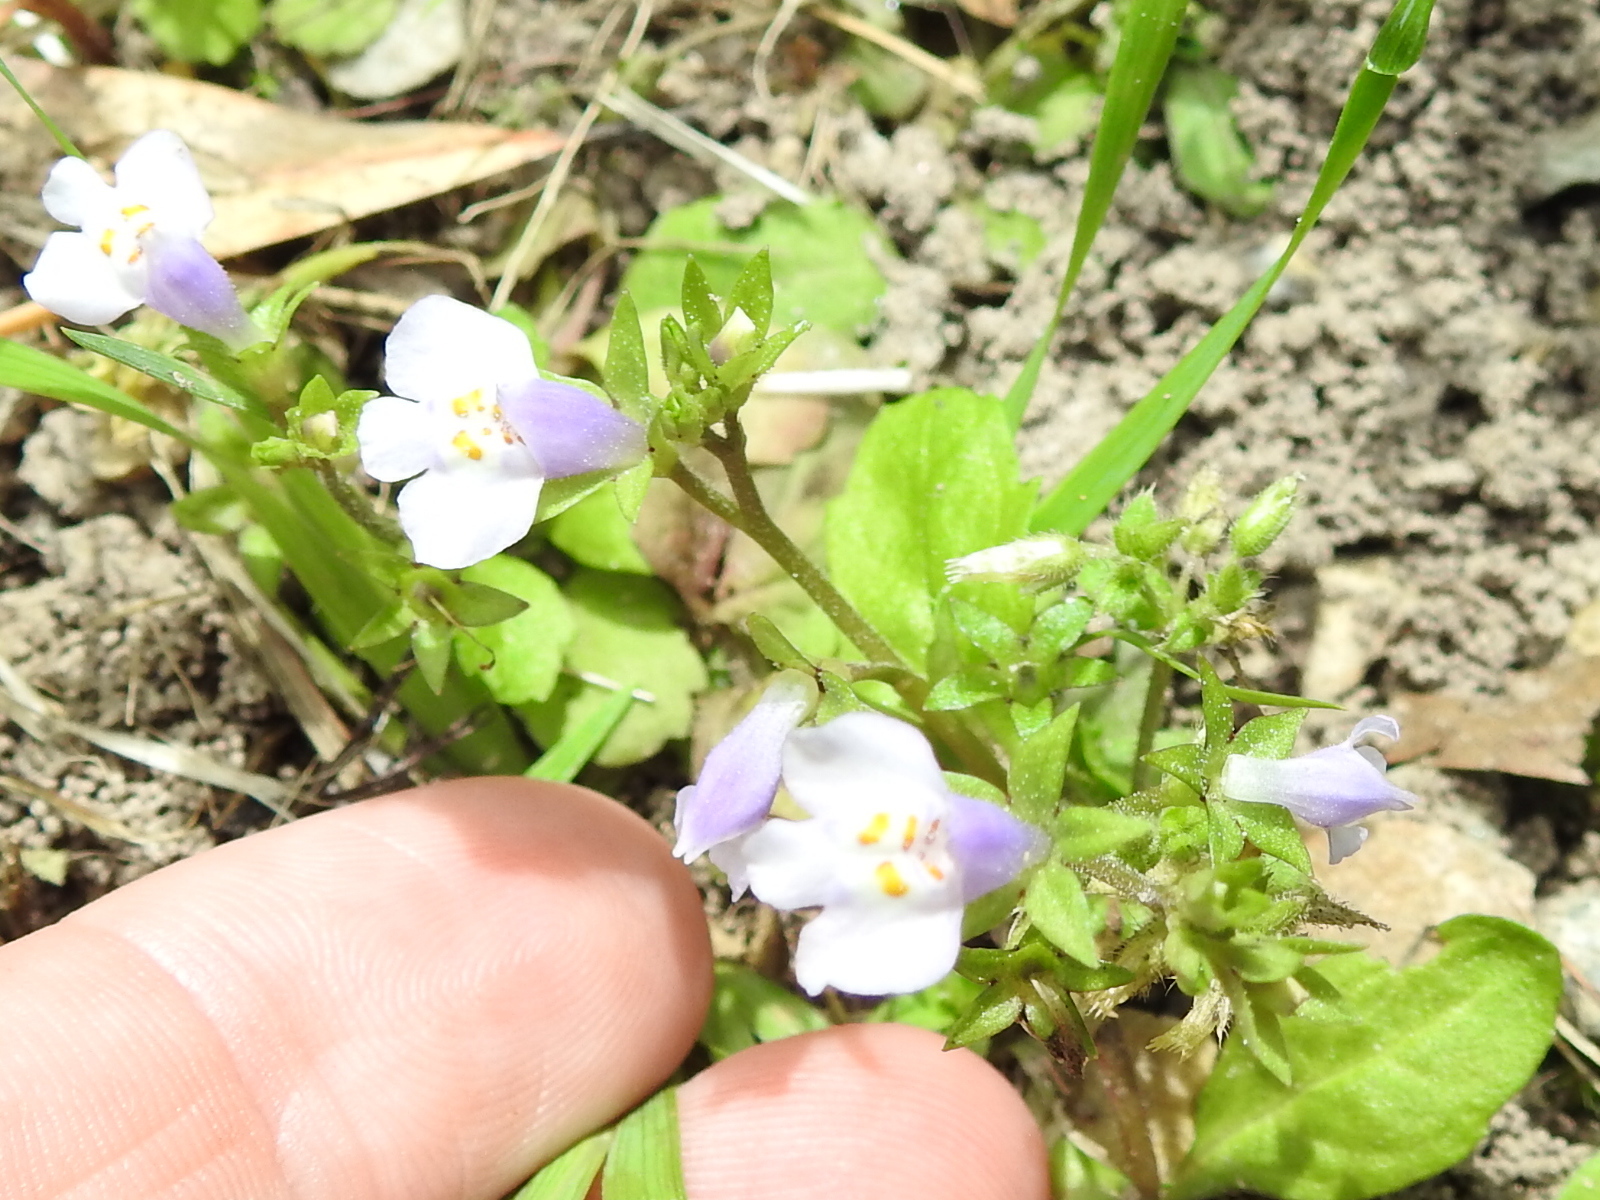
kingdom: Plantae
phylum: Tracheophyta
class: Magnoliopsida
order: Lamiales
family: Mazaceae
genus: Mazus
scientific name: Mazus pumilus
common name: Japanese mazus
